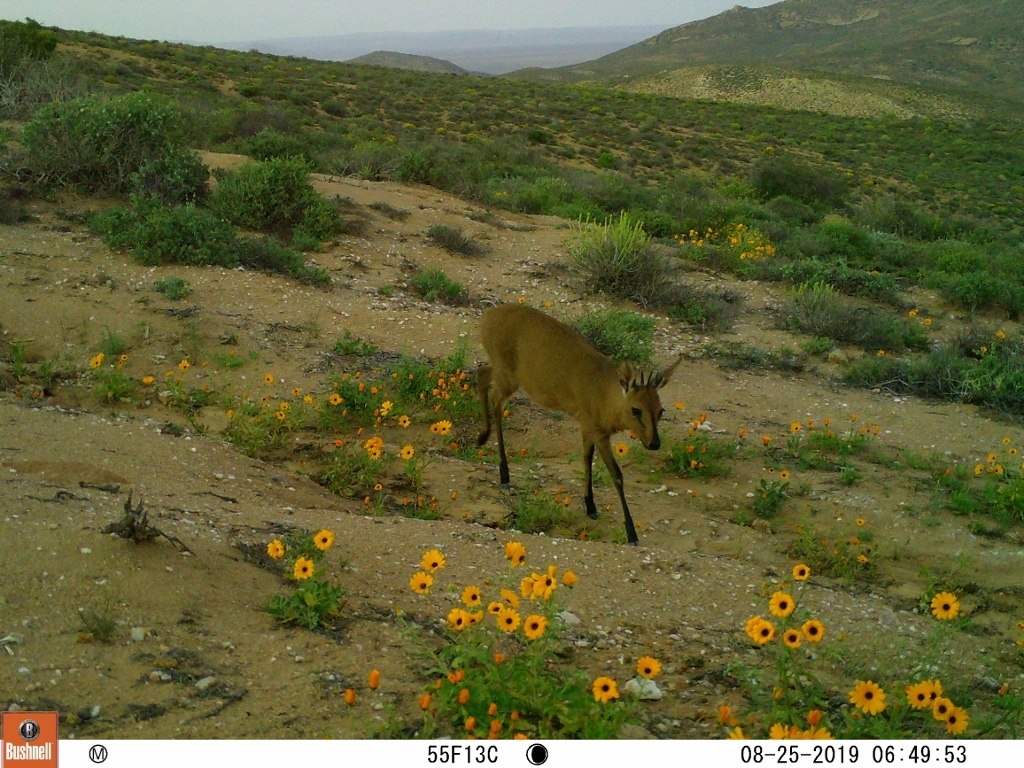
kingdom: Animalia
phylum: Chordata
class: Mammalia
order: Artiodactyla
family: Bovidae
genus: Sylvicapra
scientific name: Sylvicapra grimmia
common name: Bush duiker
